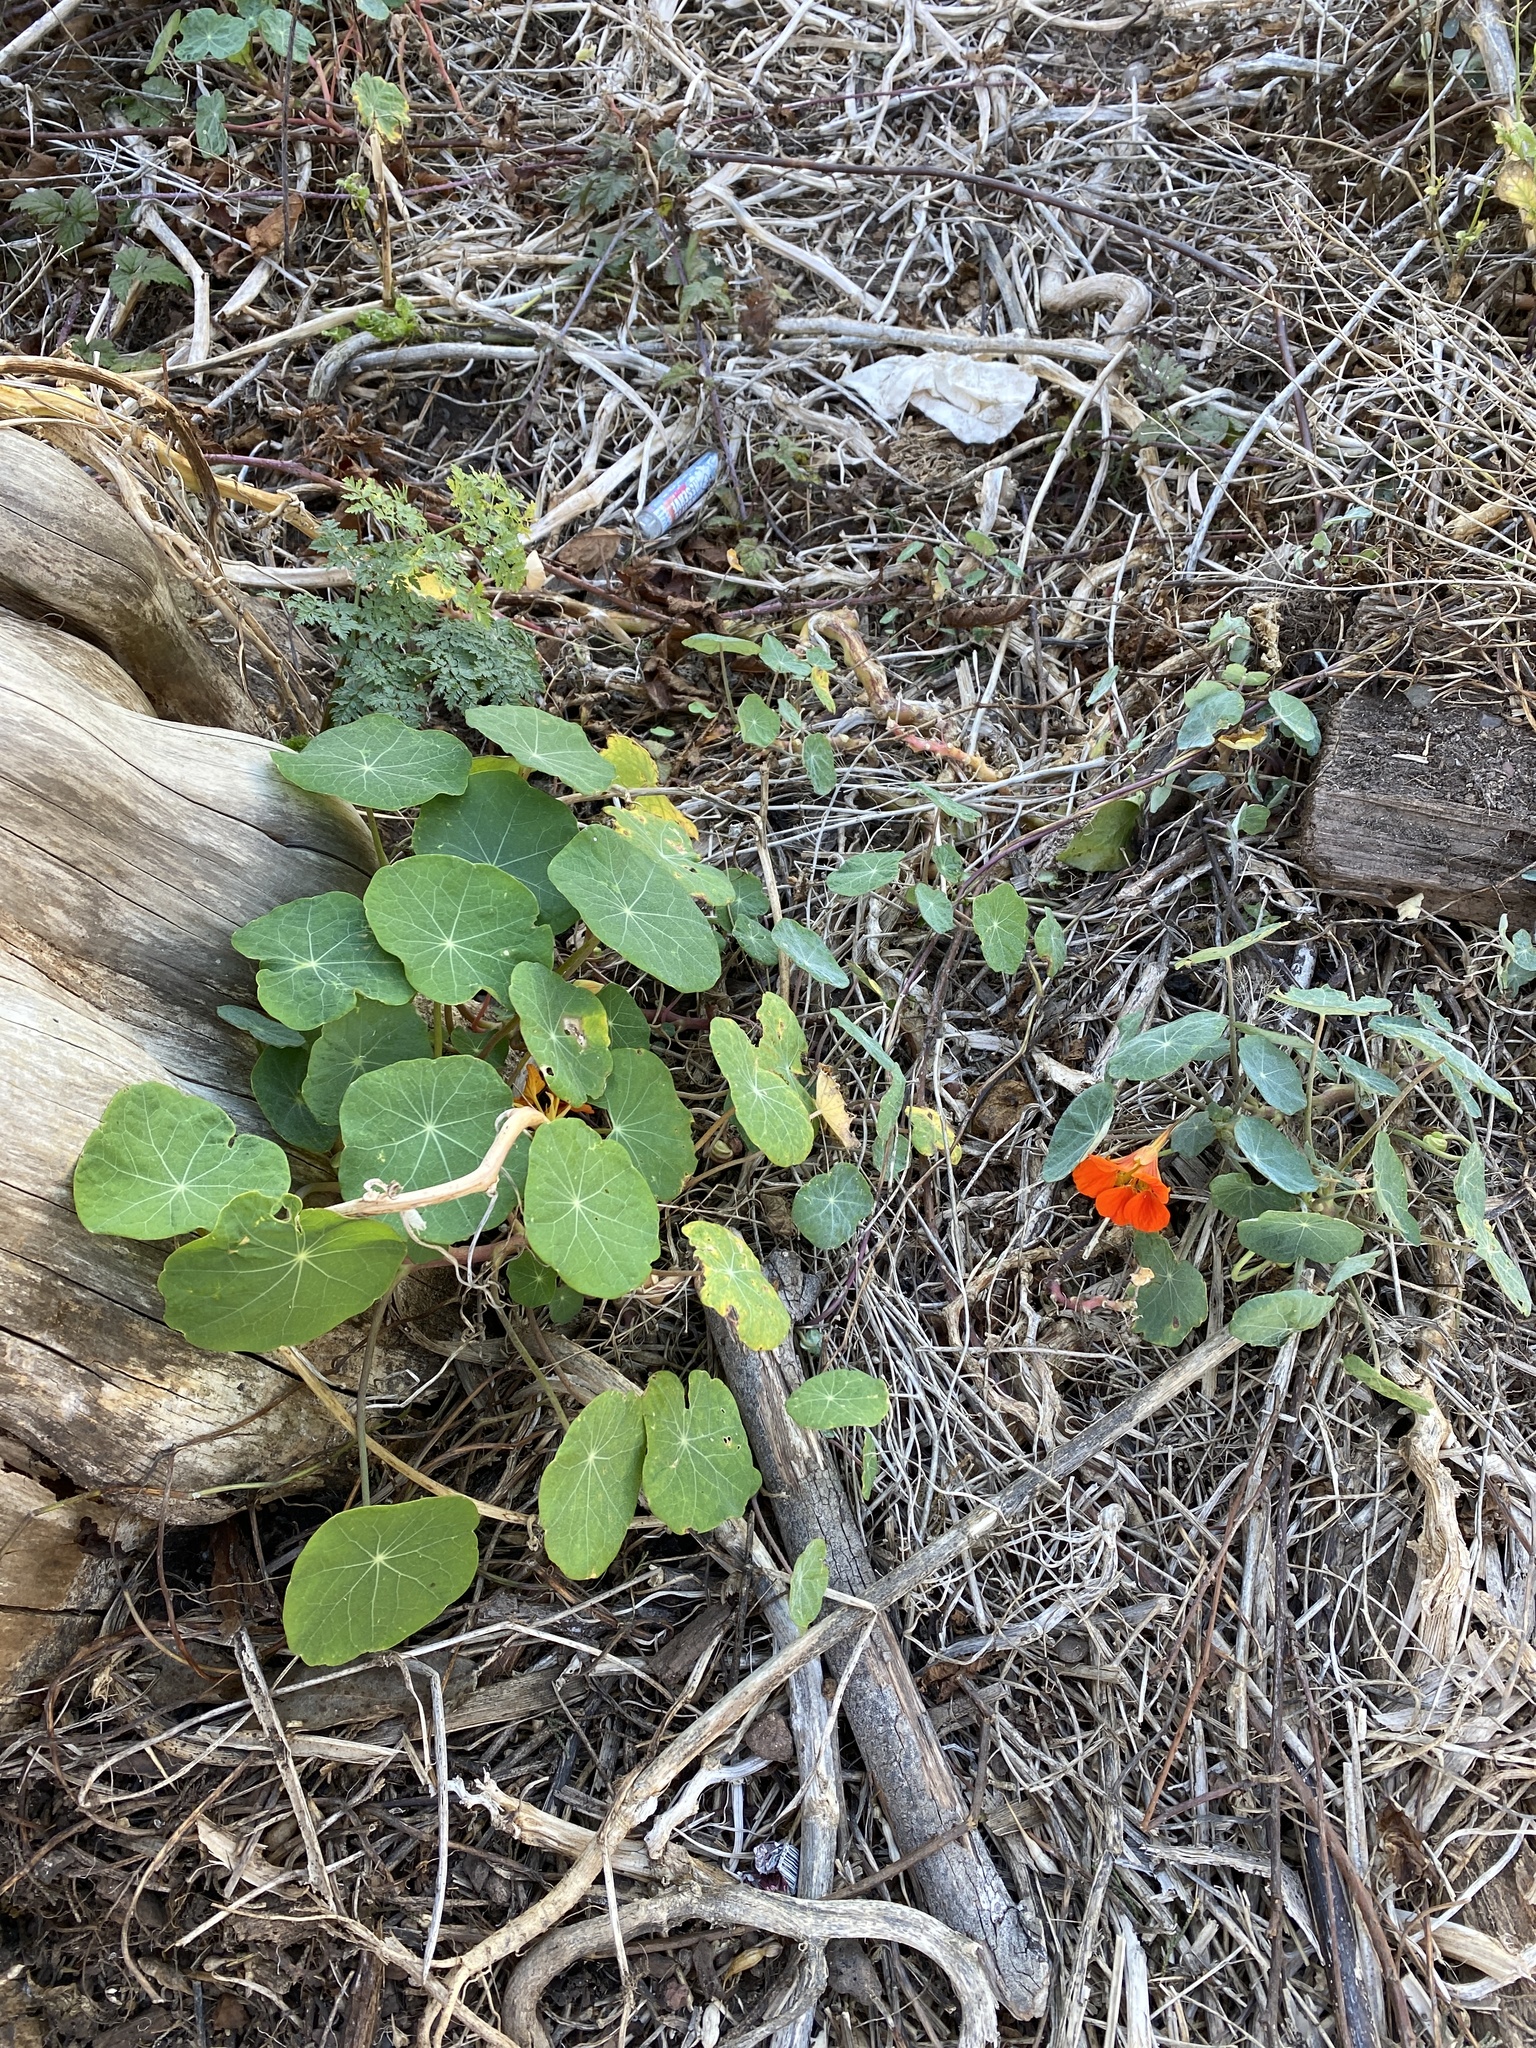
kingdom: Plantae
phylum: Tracheophyta
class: Magnoliopsida
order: Brassicales
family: Tropaeolaceae
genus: Tropaeolum
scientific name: Tropaeolum majus
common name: Nasturtium
